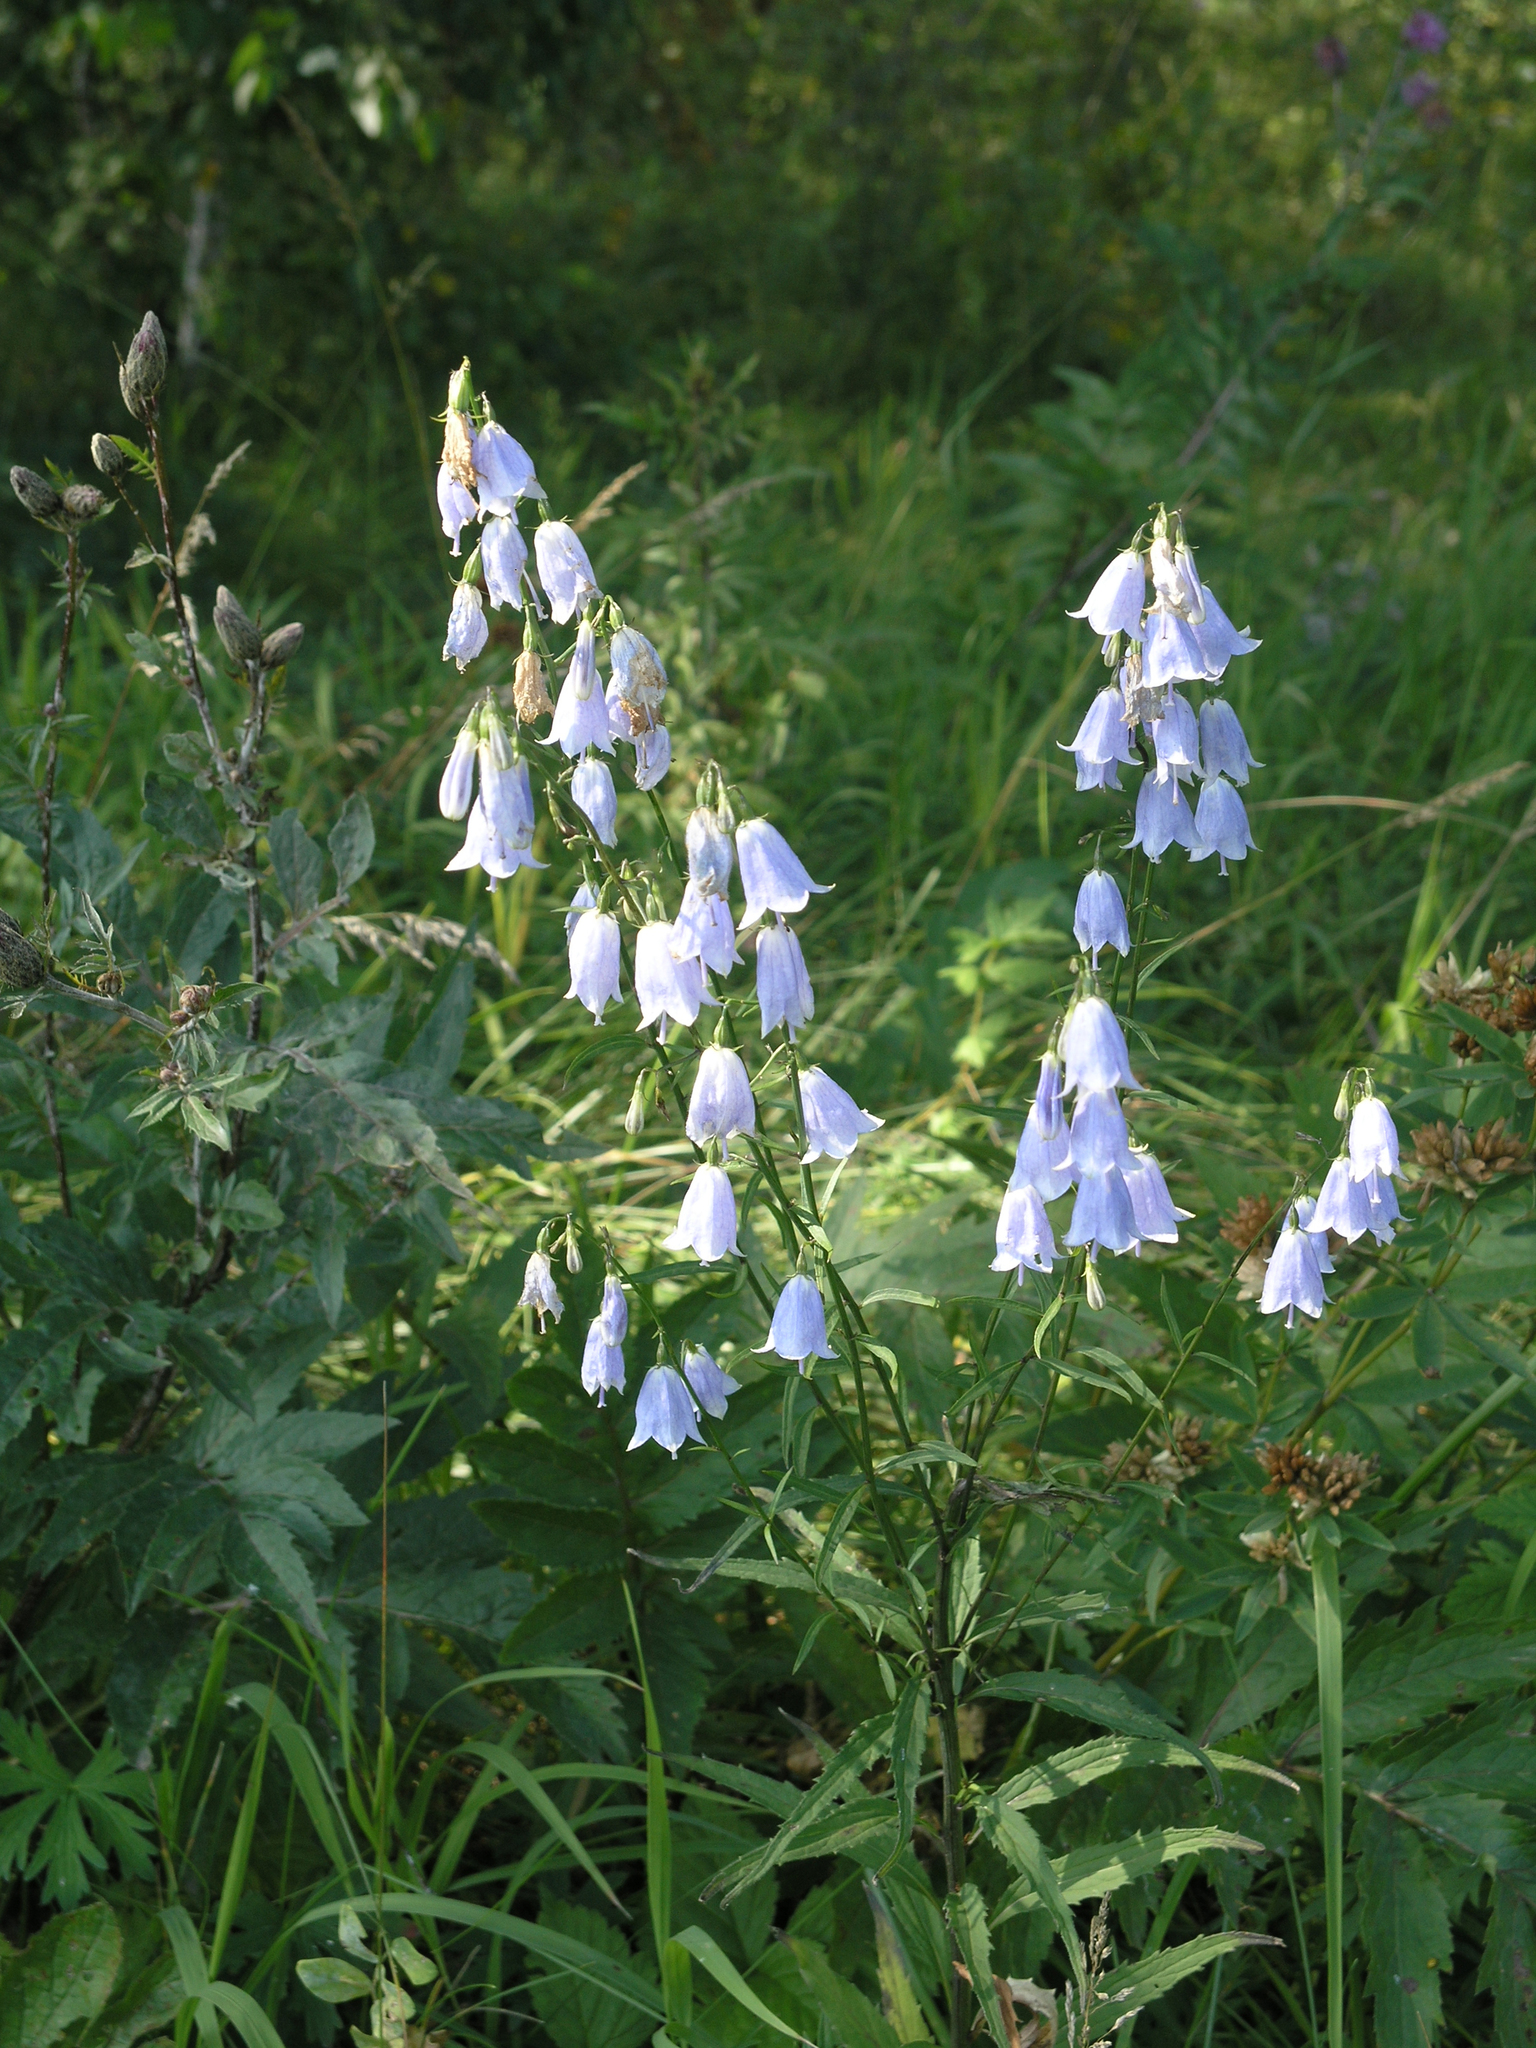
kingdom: Plantae
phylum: Tracheophyta
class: Magnoliopsida
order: Asterales
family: Campanulaceae
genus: Adenophora
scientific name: Adenophora liliifolia
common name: Lilyleaf ladybells
